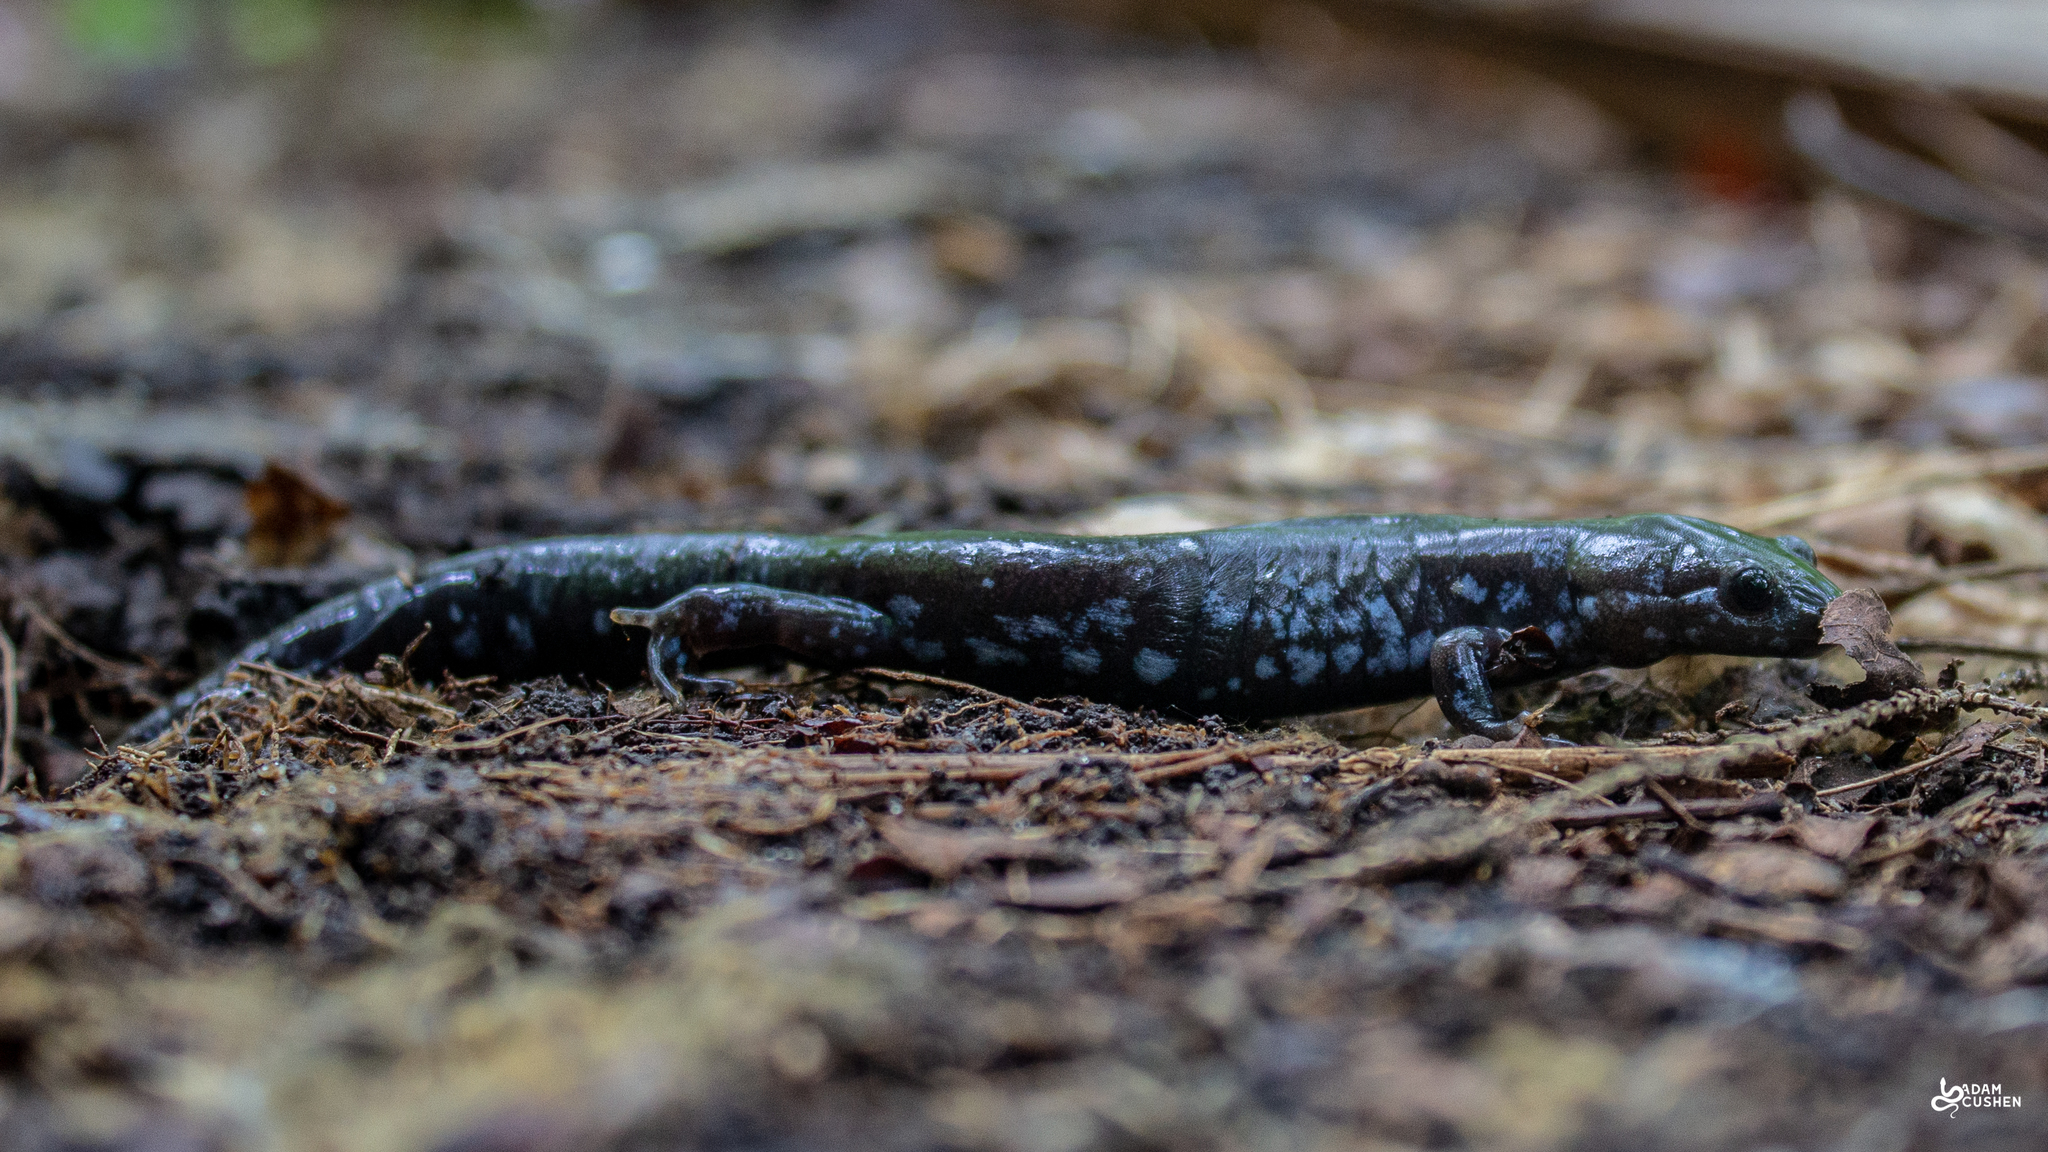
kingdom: Animalia
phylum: Chordata
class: Amphibia
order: Caudata
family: Ambystomatidae
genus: Ambystoma
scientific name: Ambystoma laterale
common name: Blue-spotted salamander
